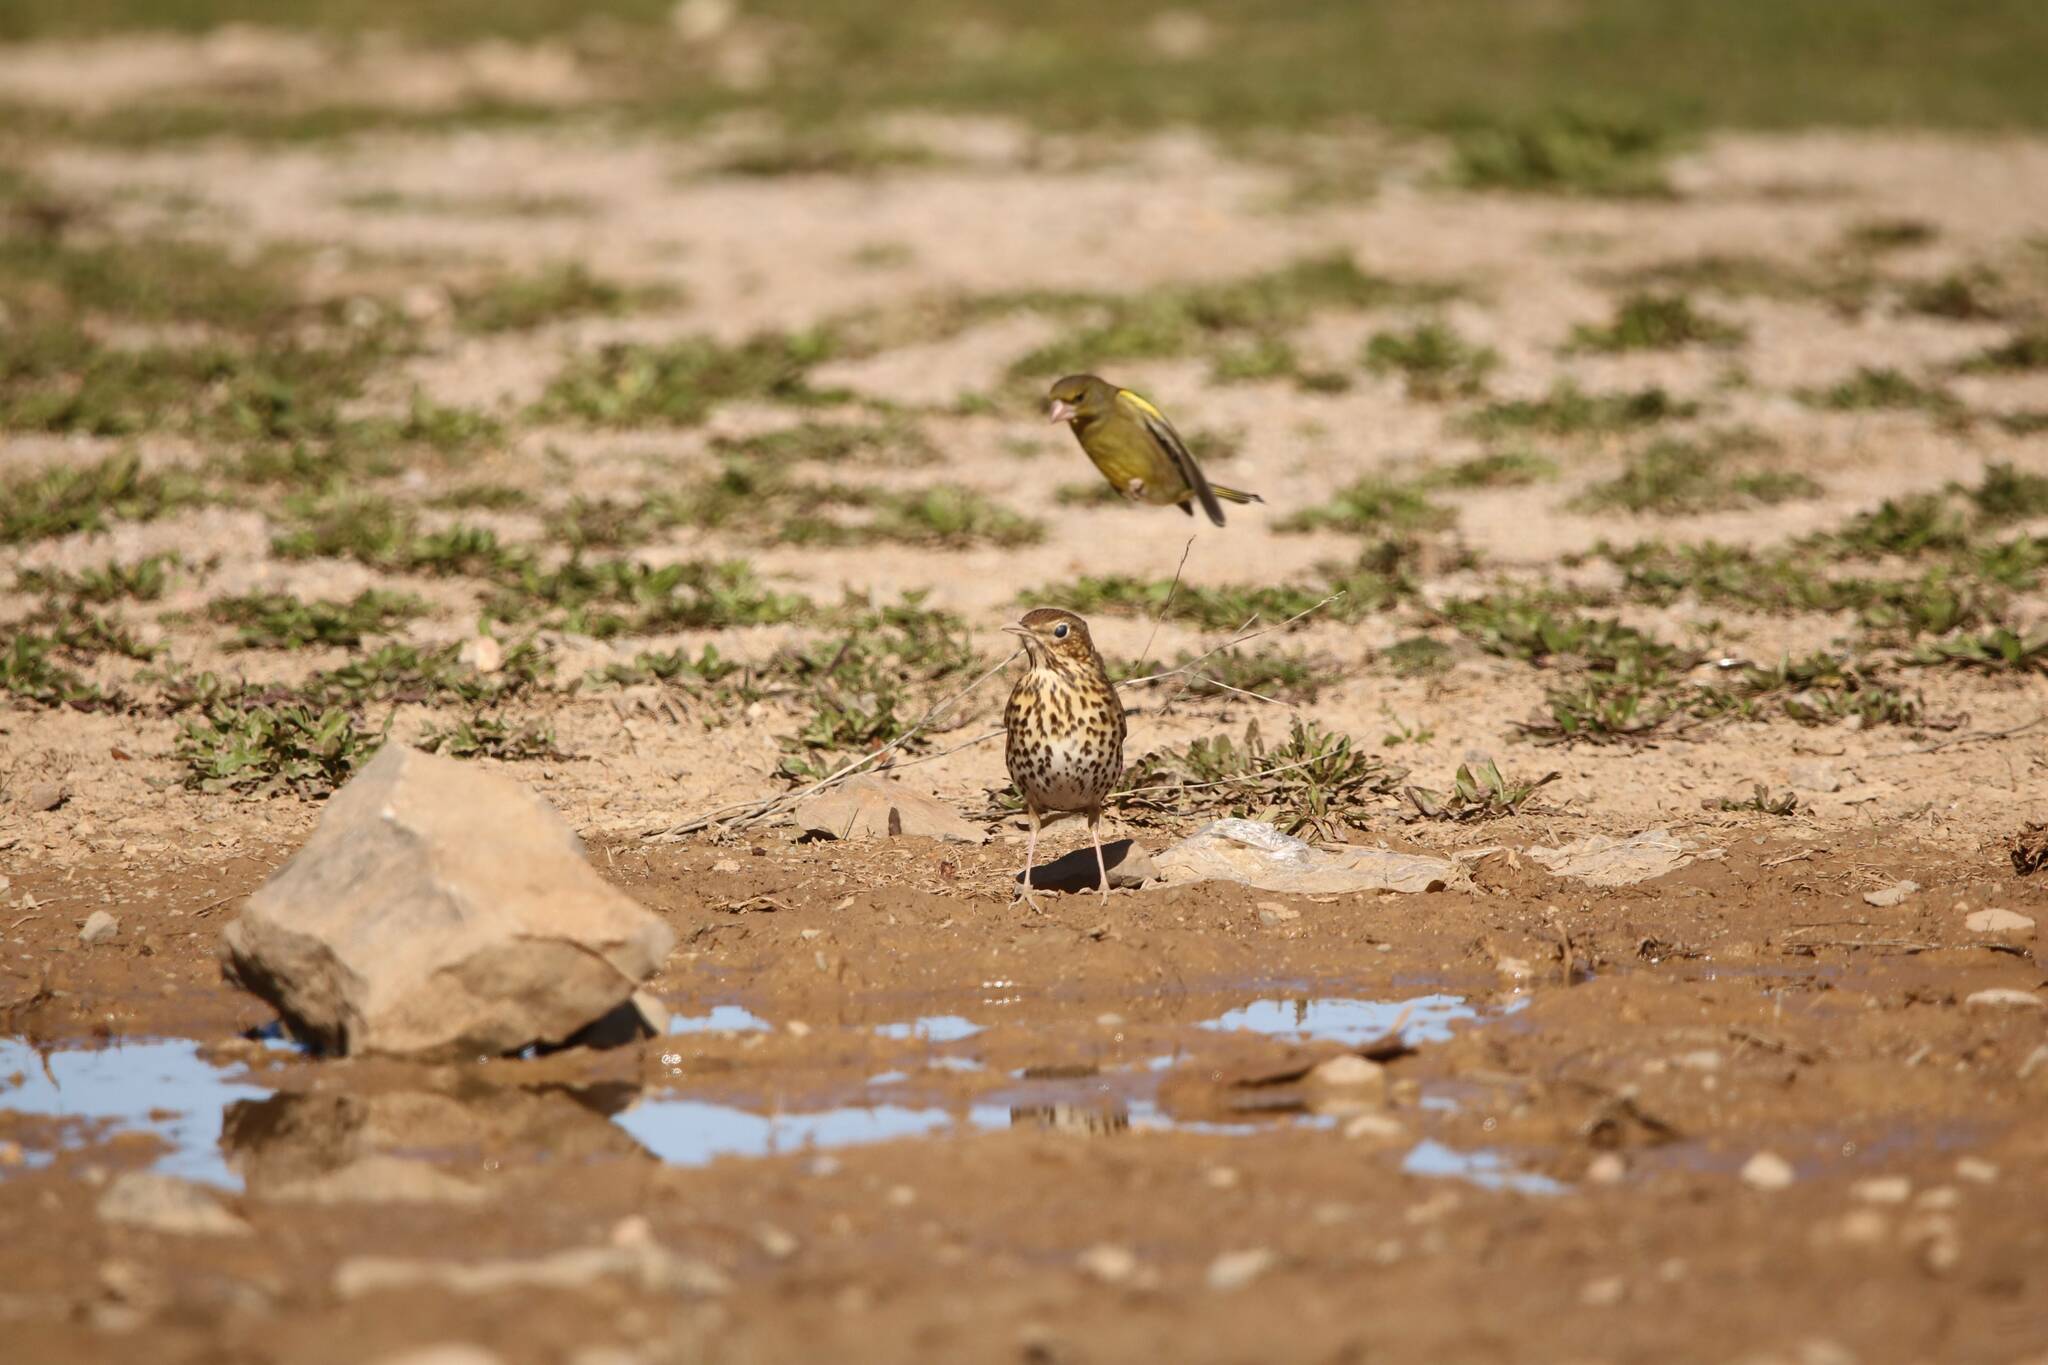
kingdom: Animalia
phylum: Chordata
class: Aves
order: Passeriformes
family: Turdidae
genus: Turdus
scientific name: Turdus philomelos
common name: Song thrush
